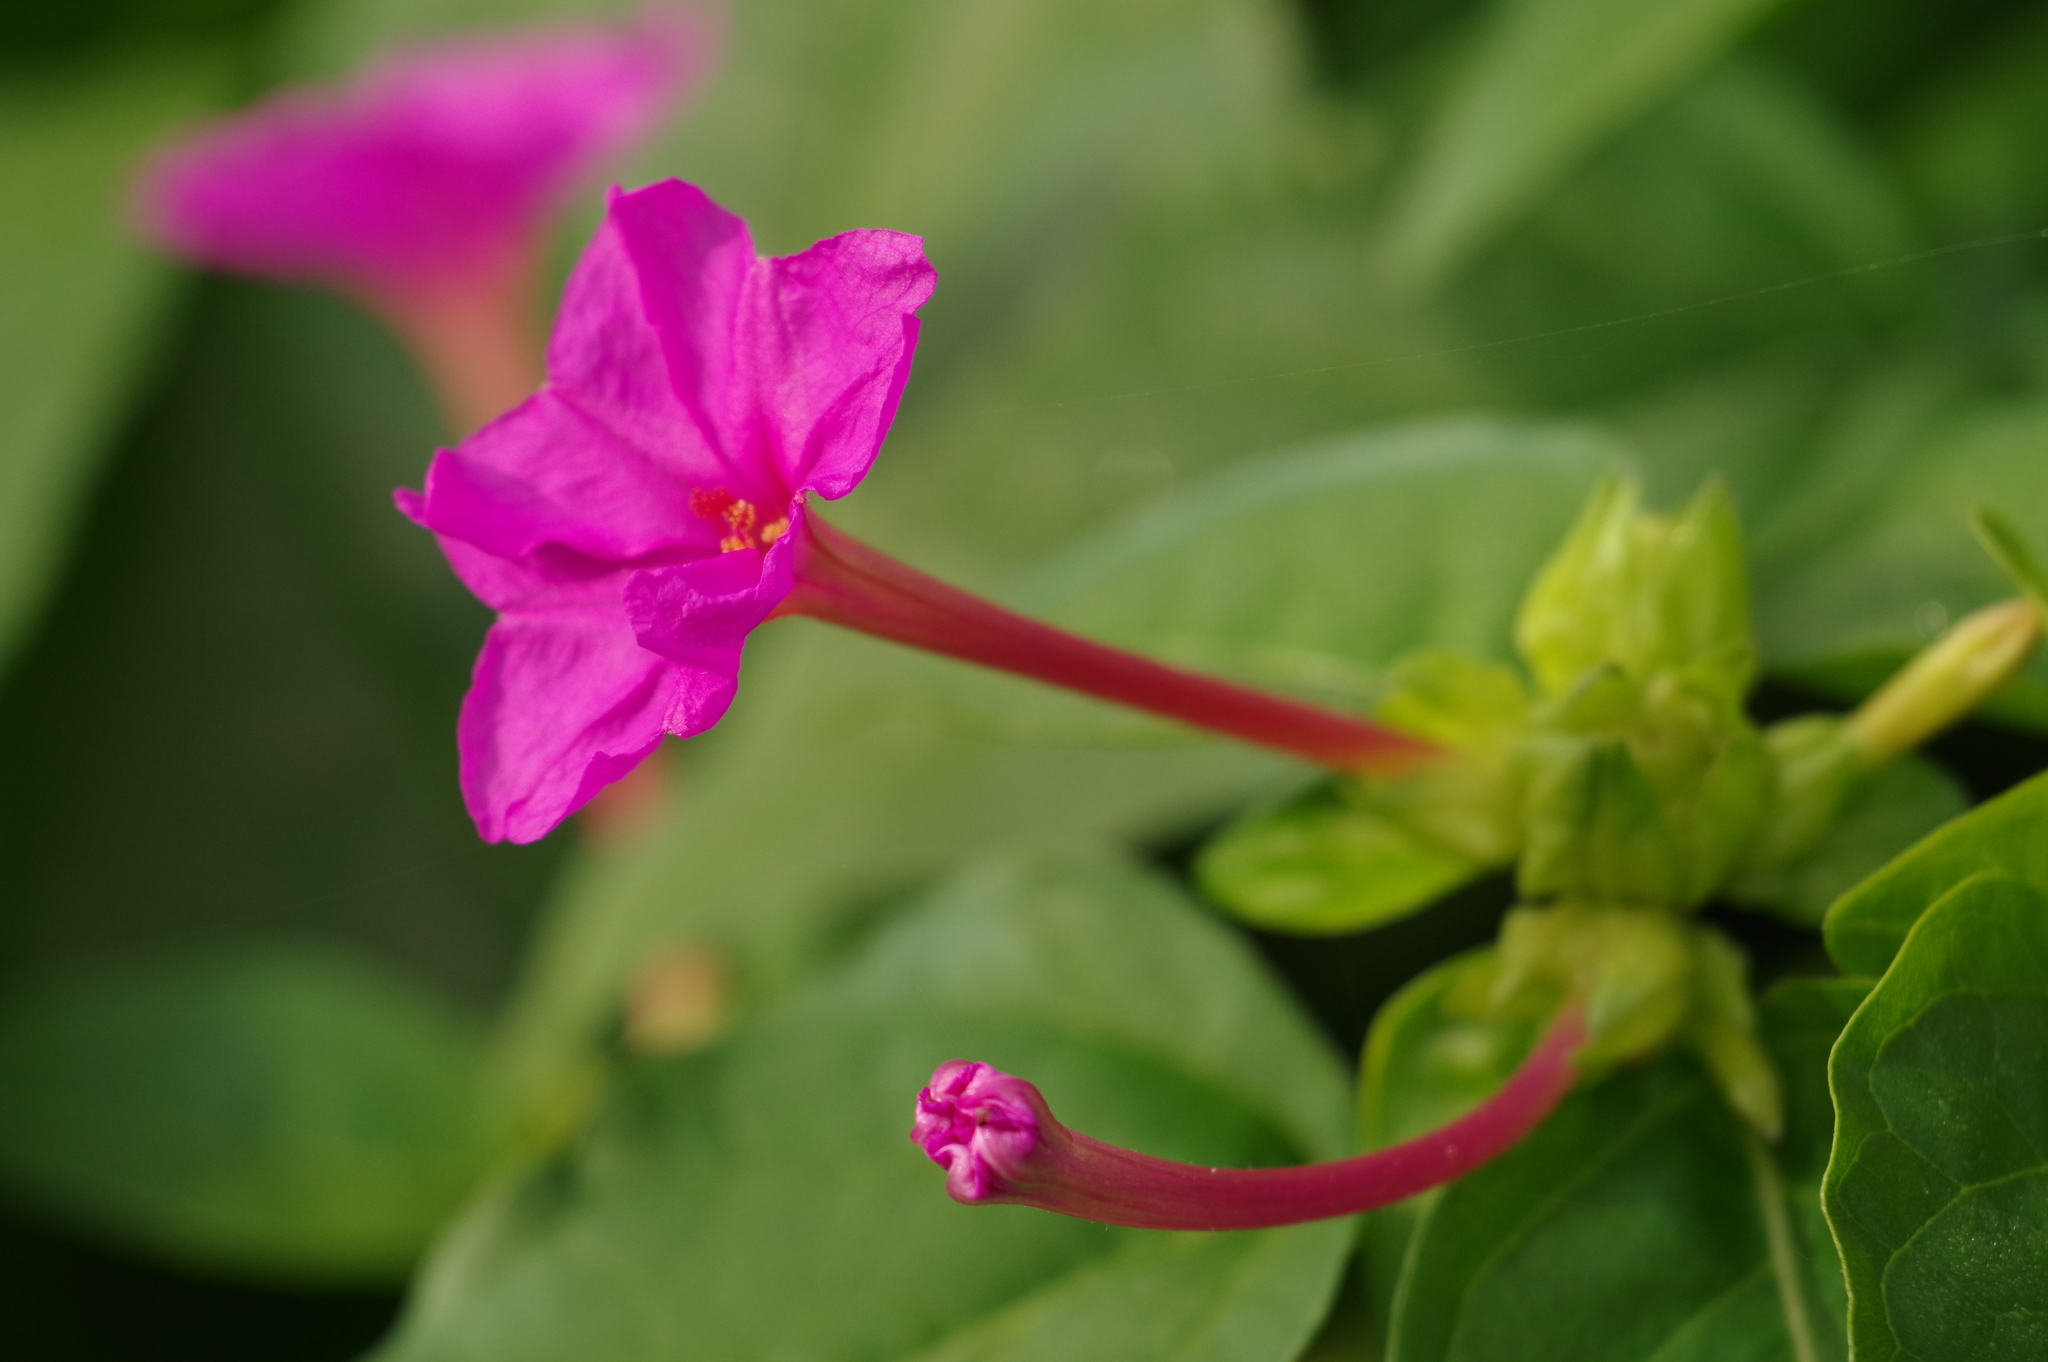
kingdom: Plantae
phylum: Tracheophyta
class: Magnoliopsida
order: Caryophyllales
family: Nyctaginaceae
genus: Mirabilis
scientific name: Mirabilis jalapa
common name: Marvel-of-peru
